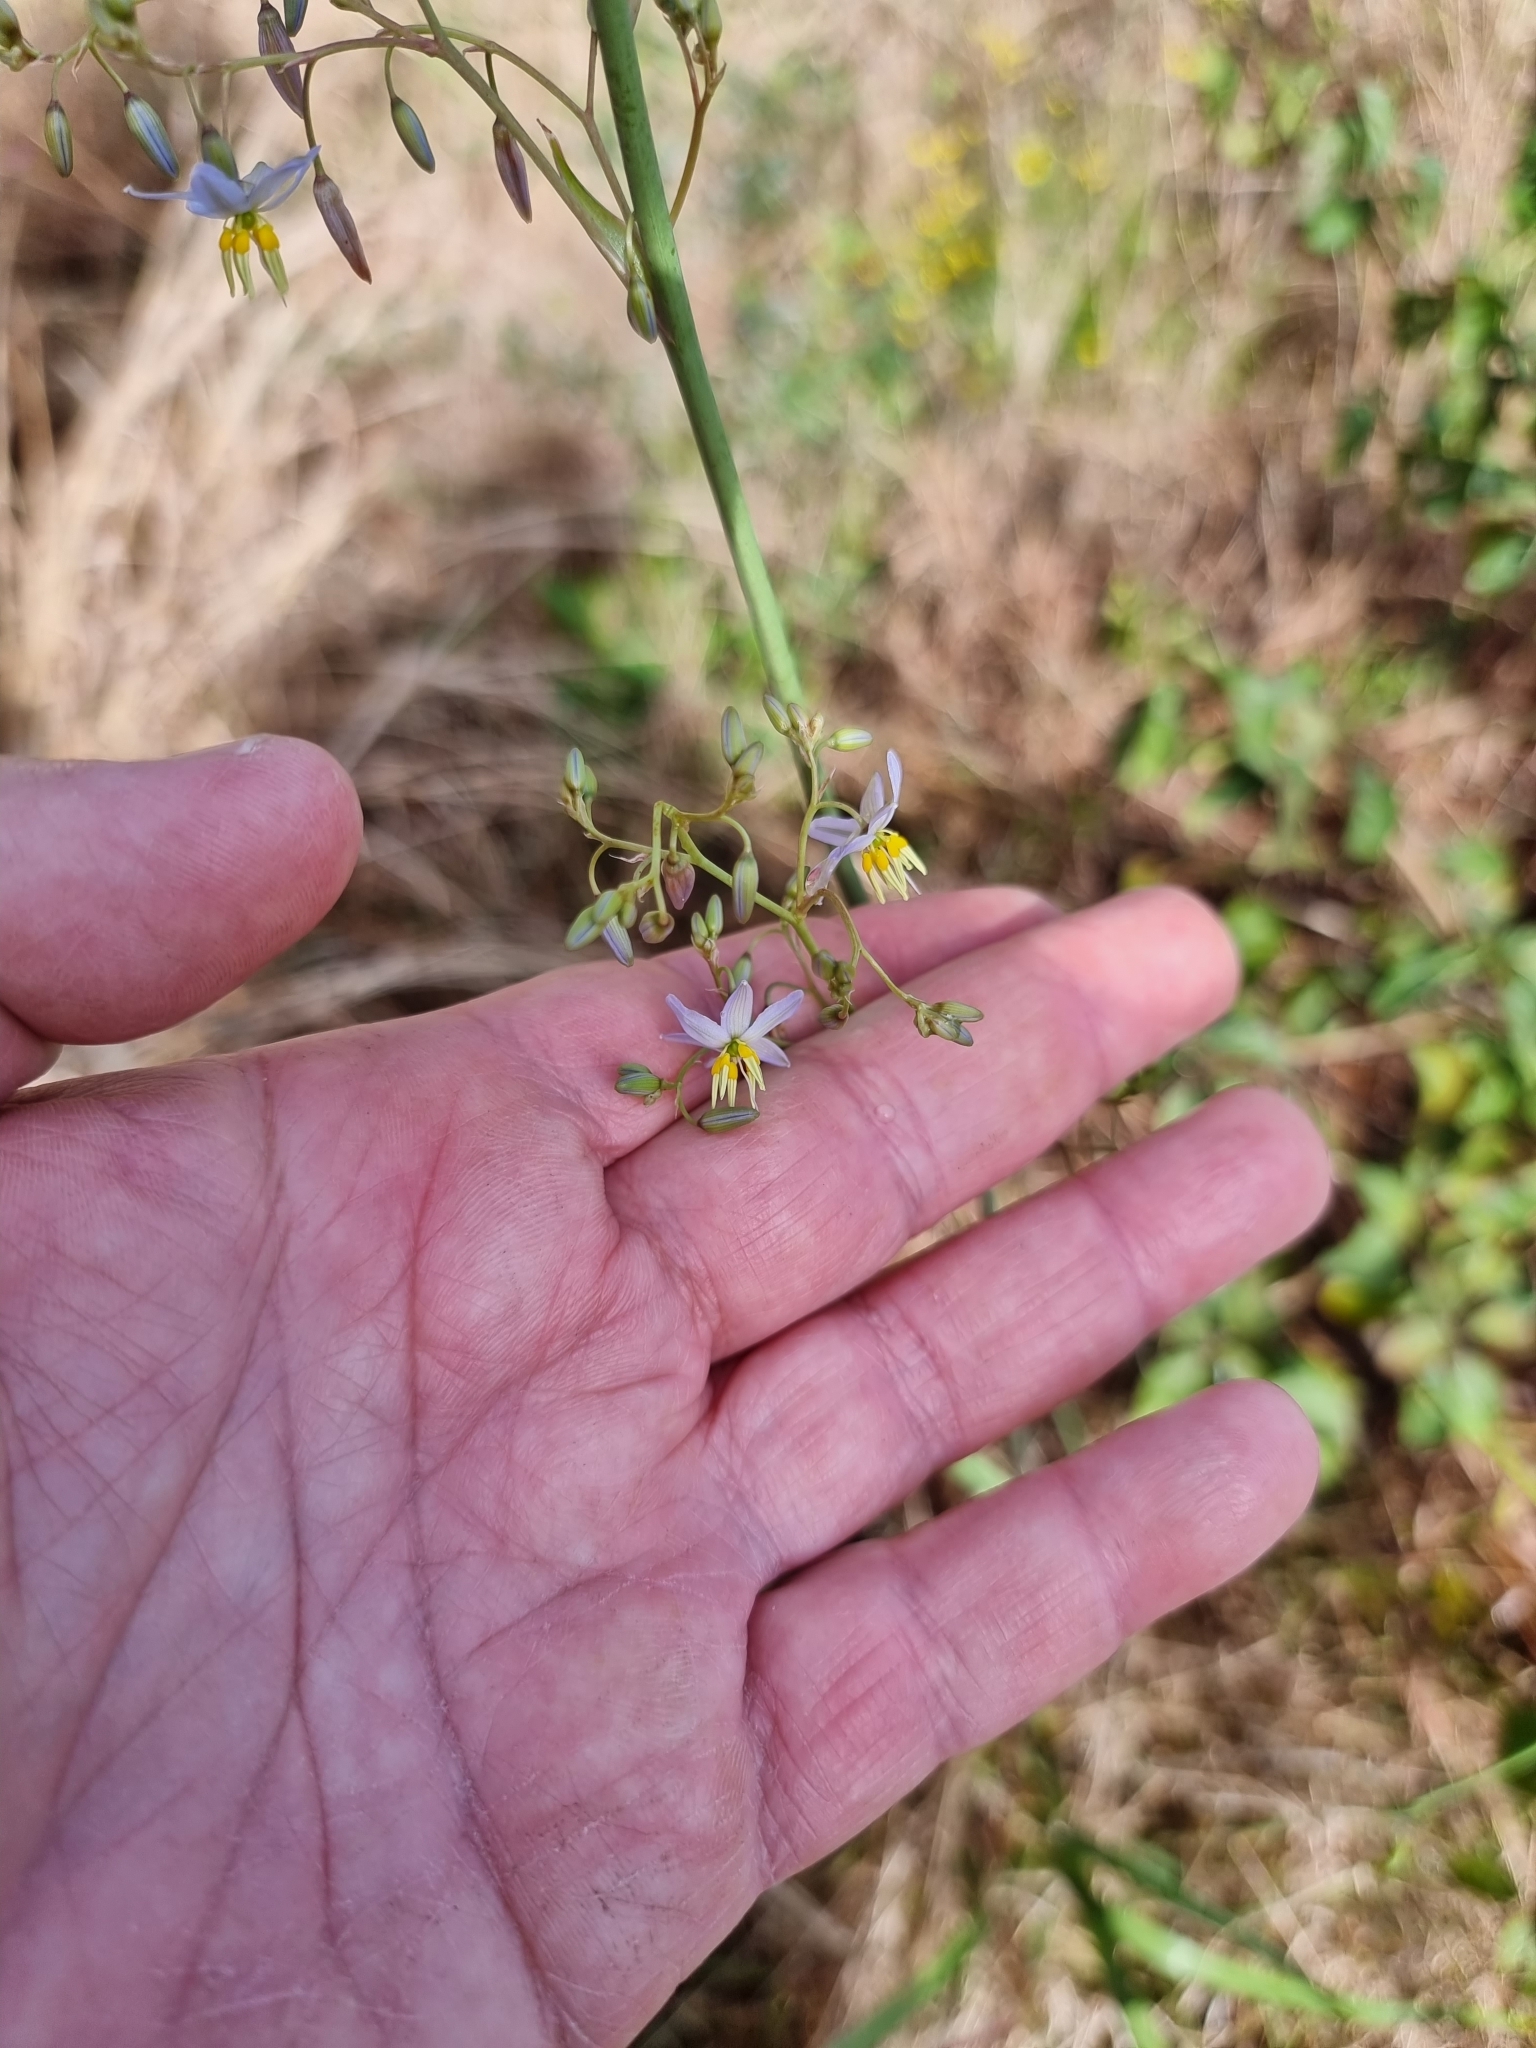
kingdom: Plantae
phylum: Tracheophyta
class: Liliopsida
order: Asparagales
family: Asphodelaceae
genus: Dianella
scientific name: Dianella longifolia
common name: Blue flax-lily
